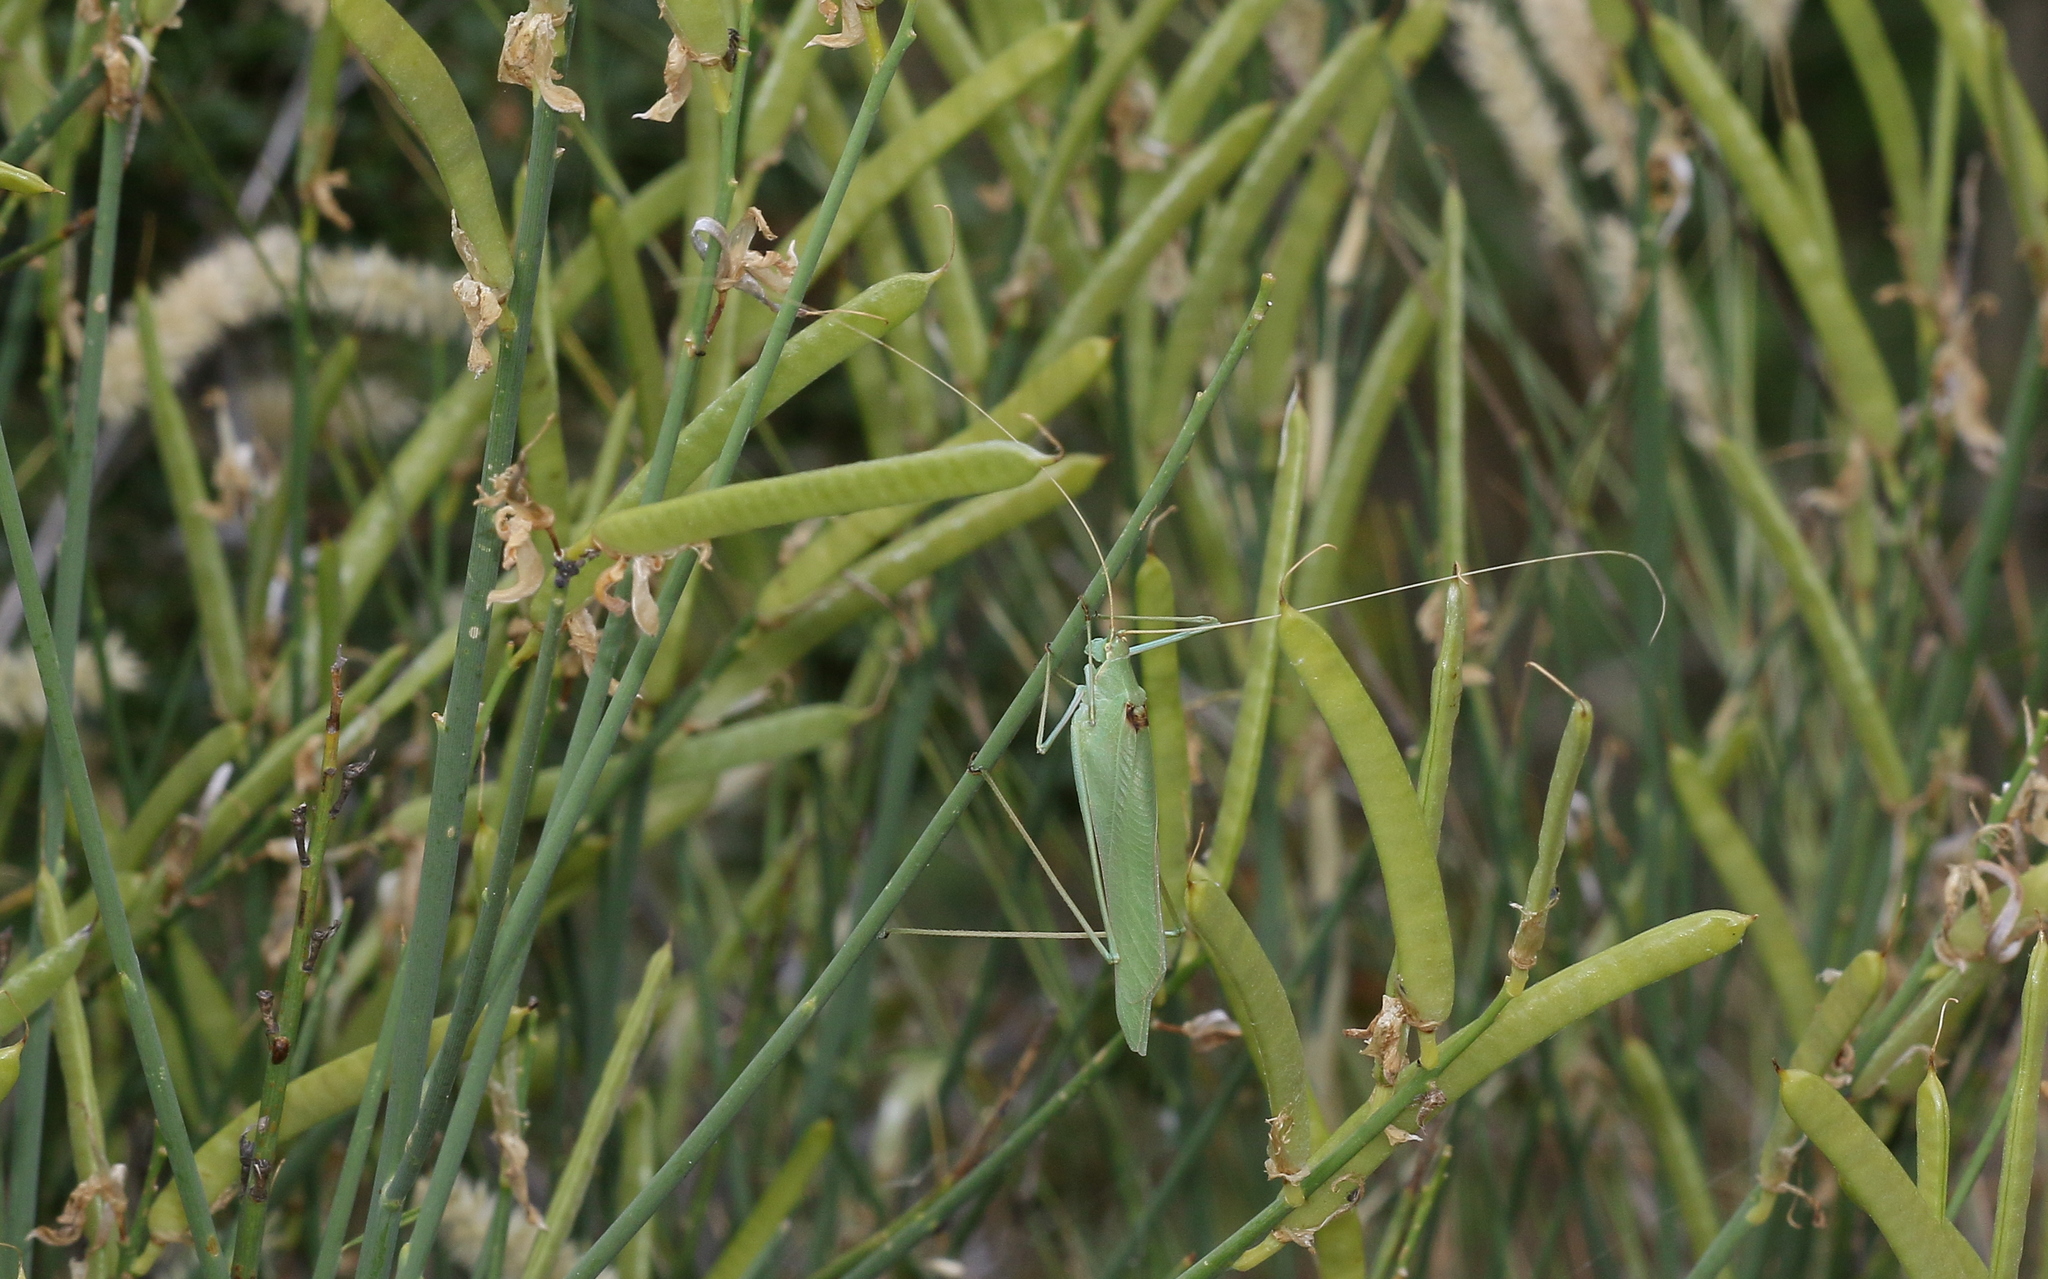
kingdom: Animalia
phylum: Arthropoda
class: Insecta
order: Orthoptera
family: Tettigoniidae
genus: Acrometopa
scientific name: Acrometopa servillea
